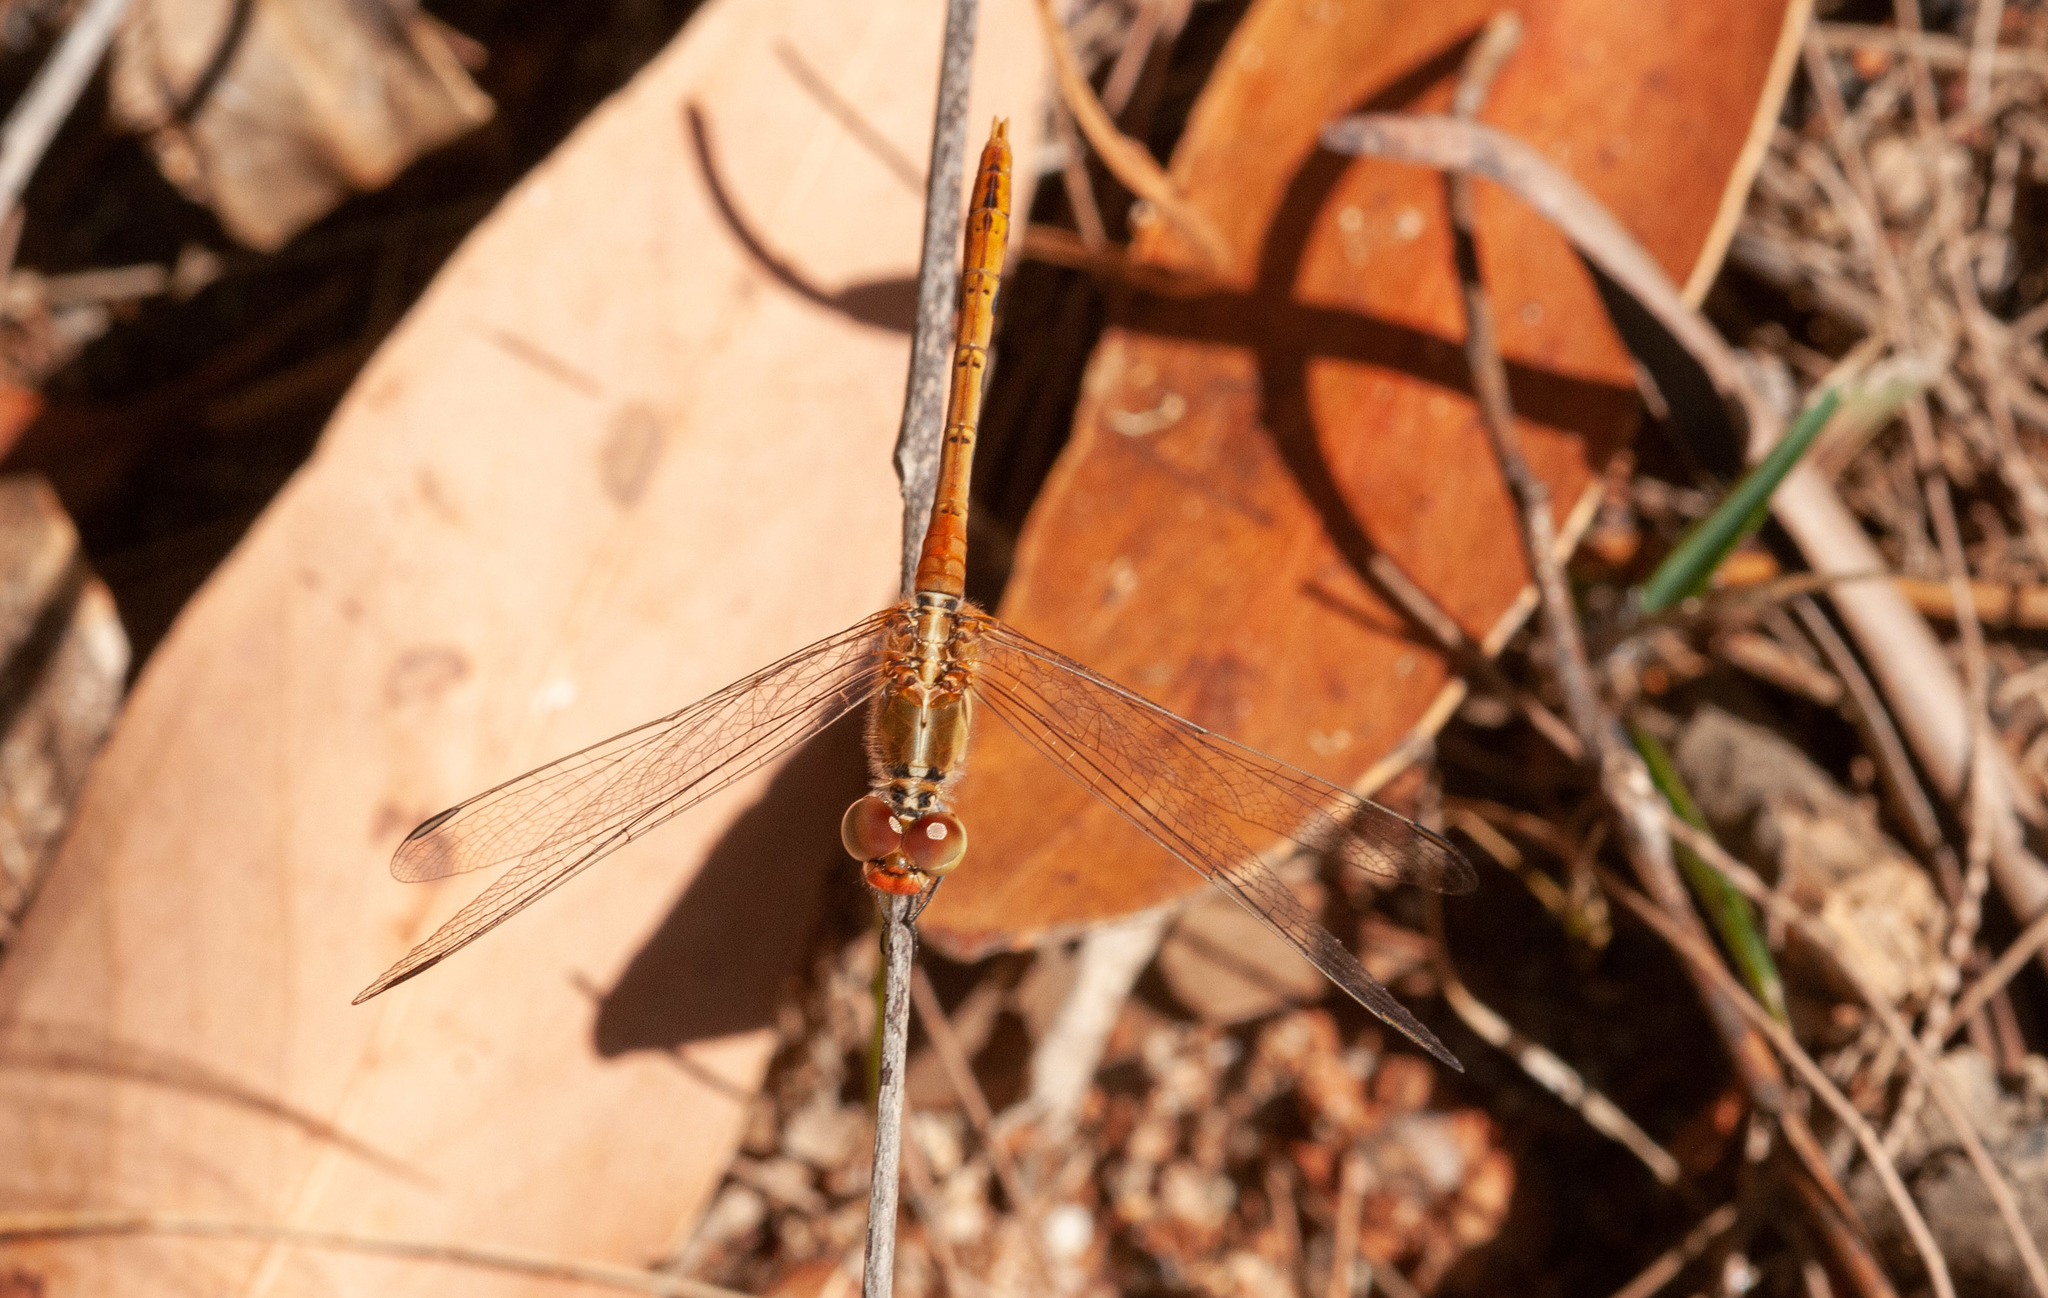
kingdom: Animalia
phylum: Arthropoda
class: Insecta
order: Odonata
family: Libellulidae
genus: Diplacodes
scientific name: Diplacodes bipunctata
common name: Red percher dragonfly
